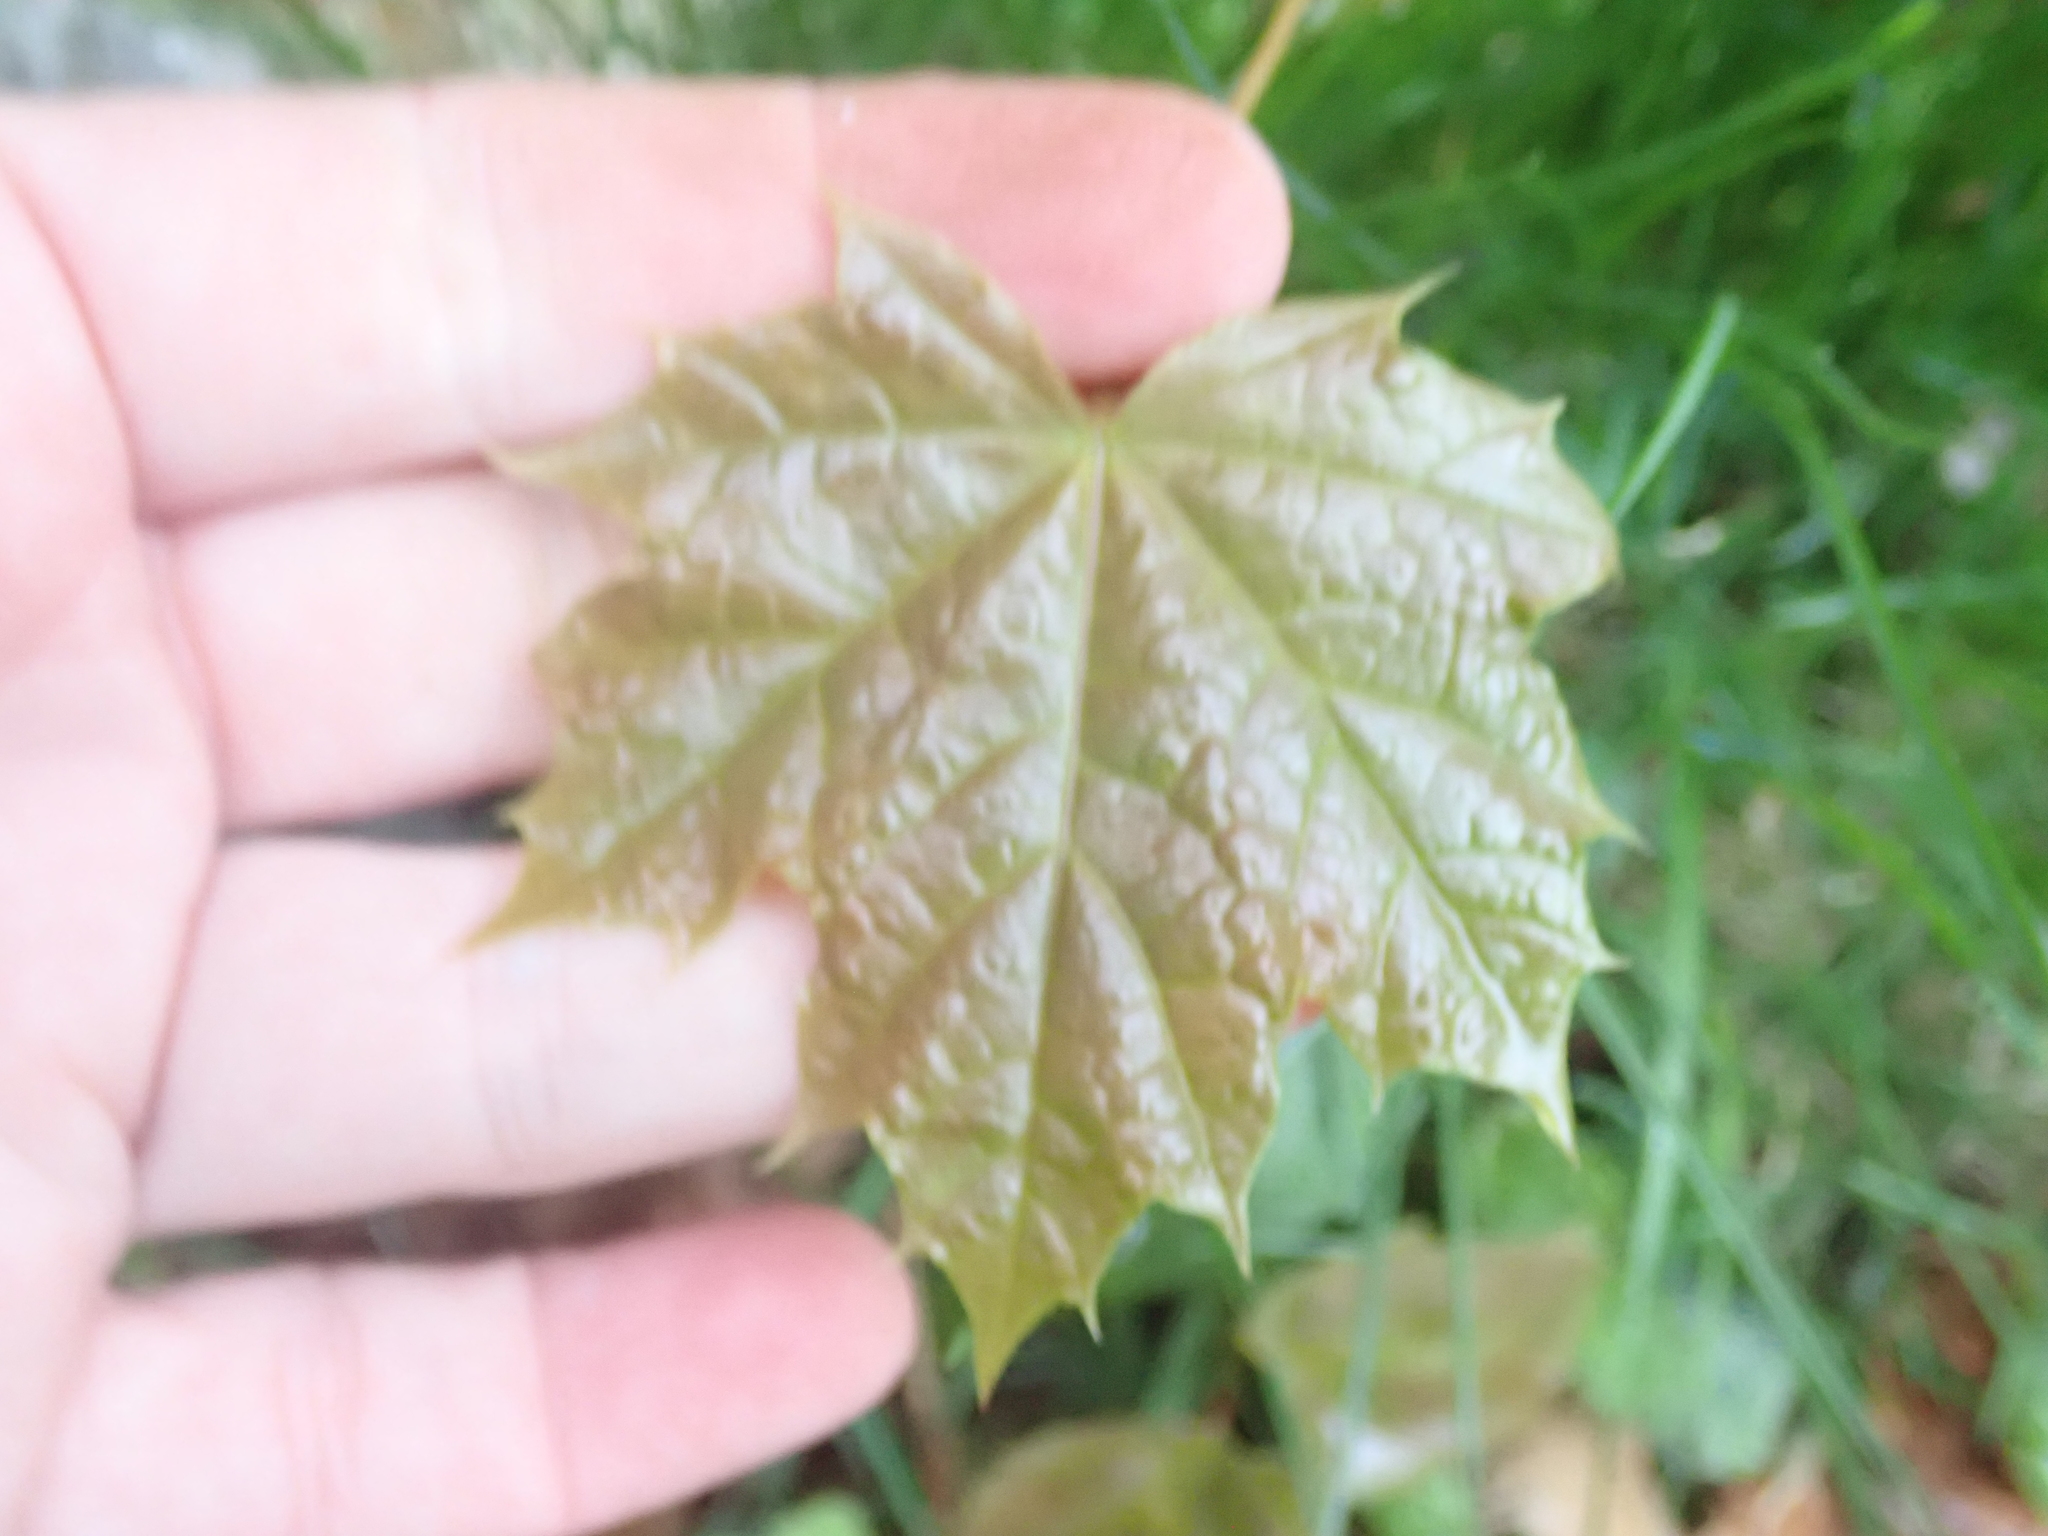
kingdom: Plantae
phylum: Tracheophyta
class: Magnoliopsida
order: Sapindales
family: Sapindaceae
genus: Acer
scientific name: Acer platanoides
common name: Norway maple
